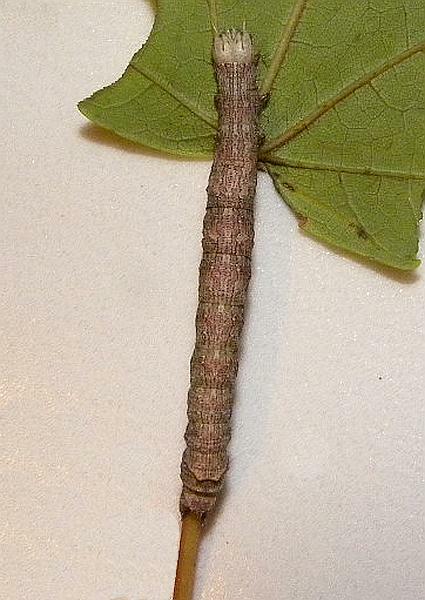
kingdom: Animalia
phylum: Arthropoda
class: Insecta
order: Lepidoptera
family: Erebidae
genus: Parallelia
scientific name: Parallelia bistriaris
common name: Maple looper moth
